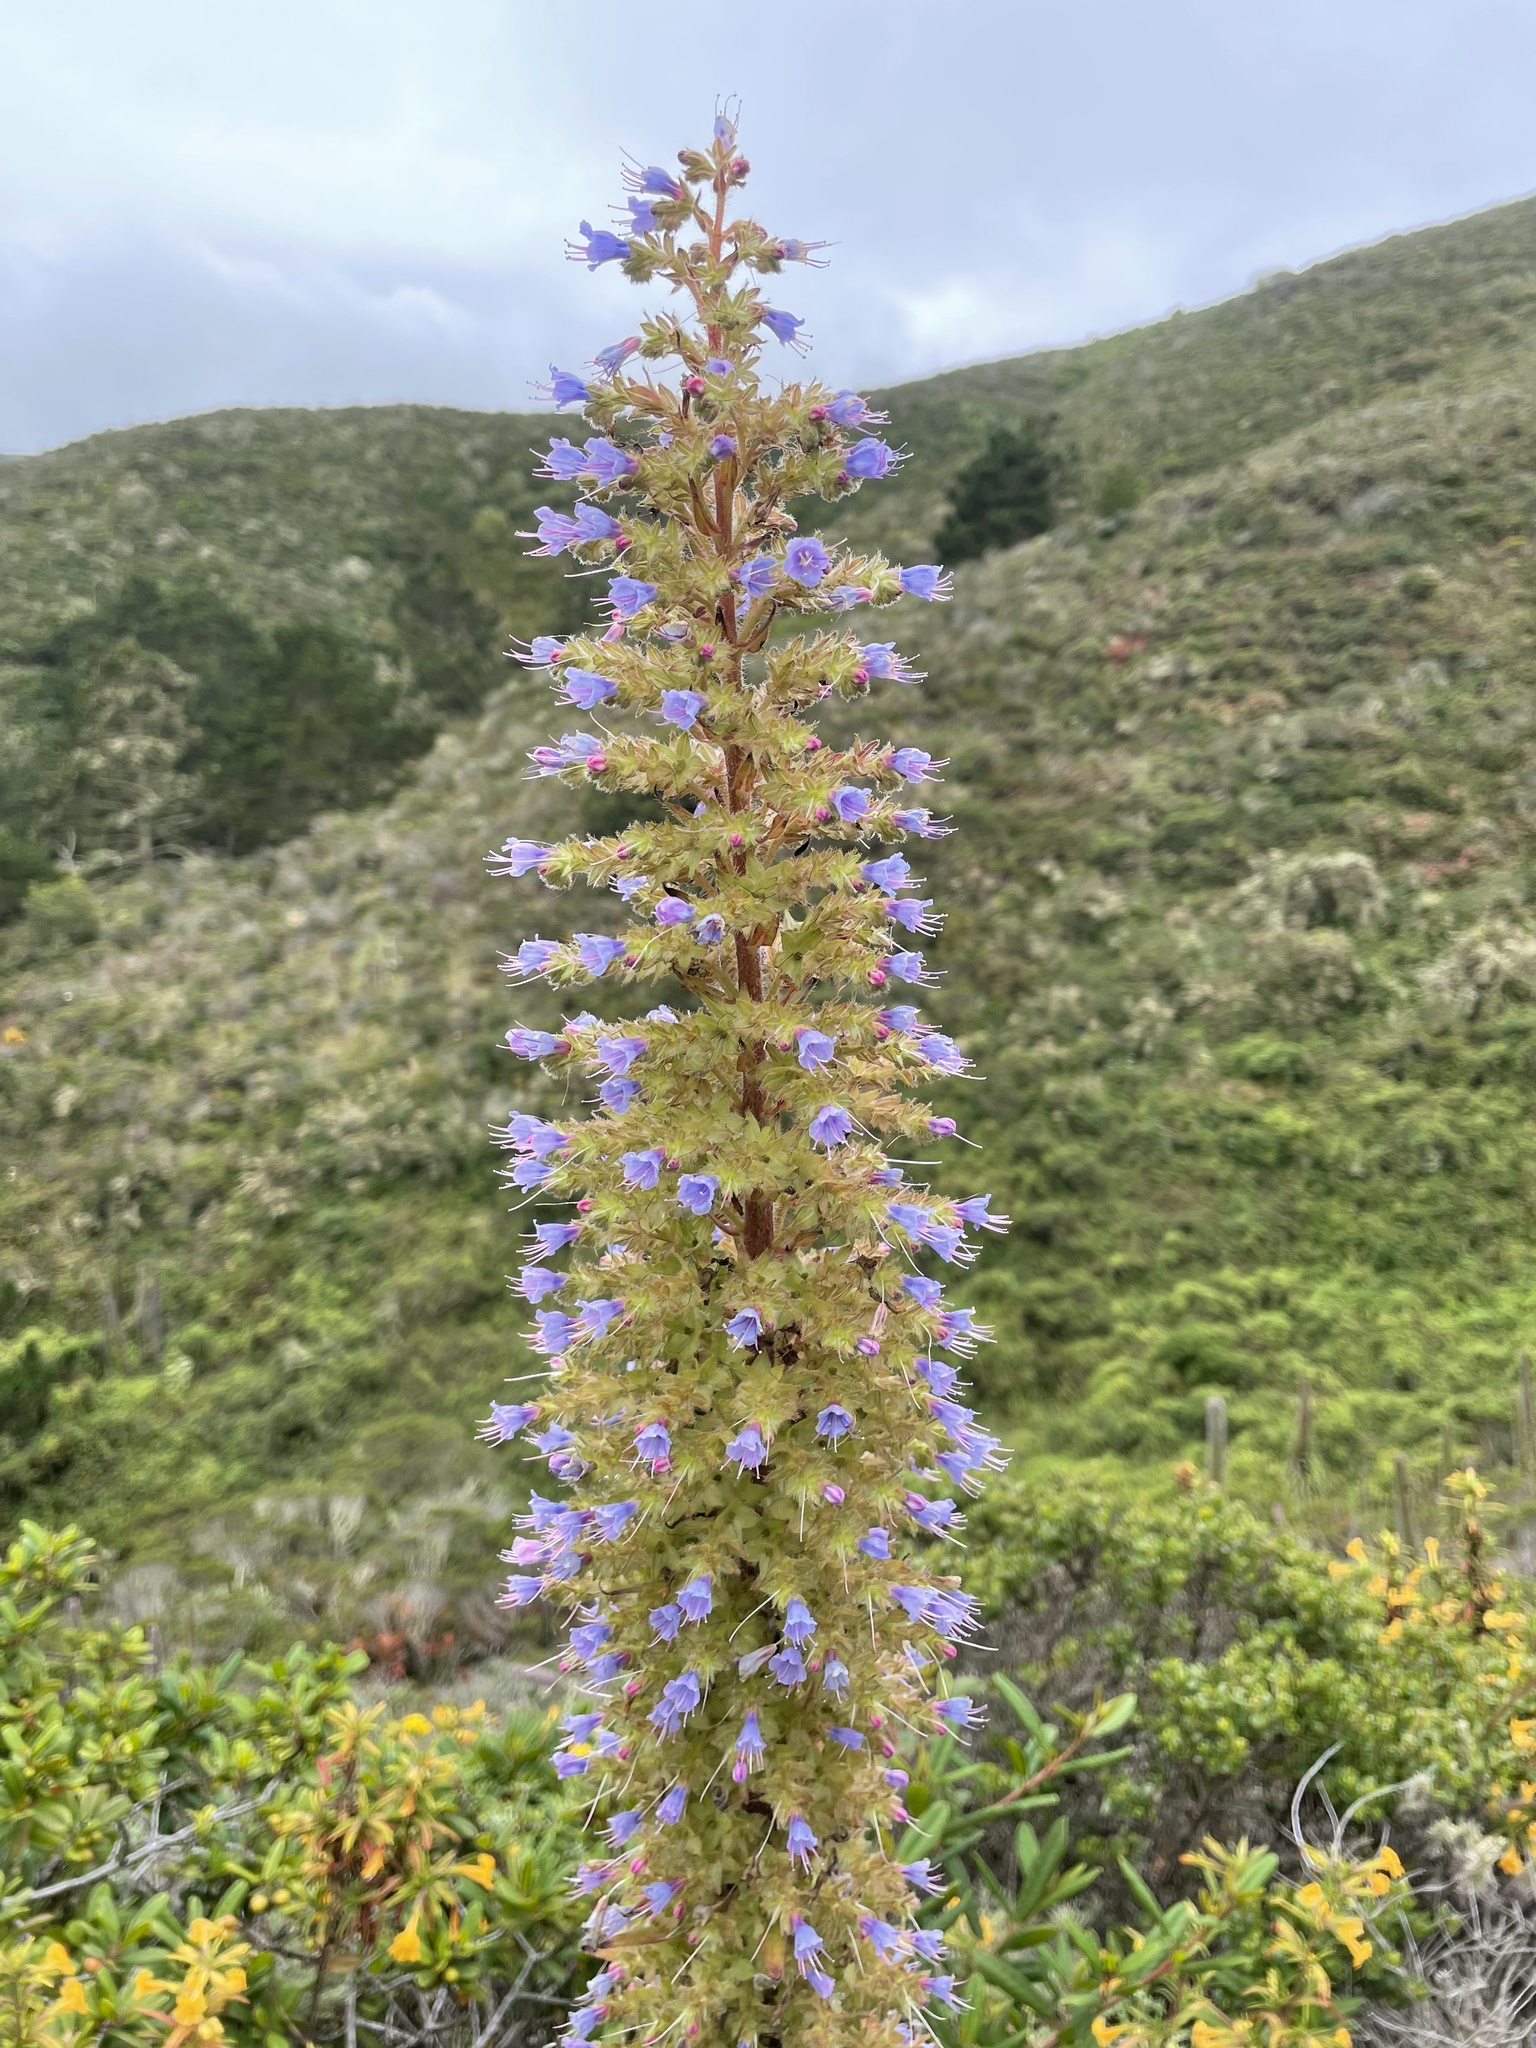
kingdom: Plantae
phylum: Tracheophyta
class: Magnoliopsida
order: Boraginales
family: Boraginaceae
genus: Echium
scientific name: Echium pininana
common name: Giant viper's-bugloss
